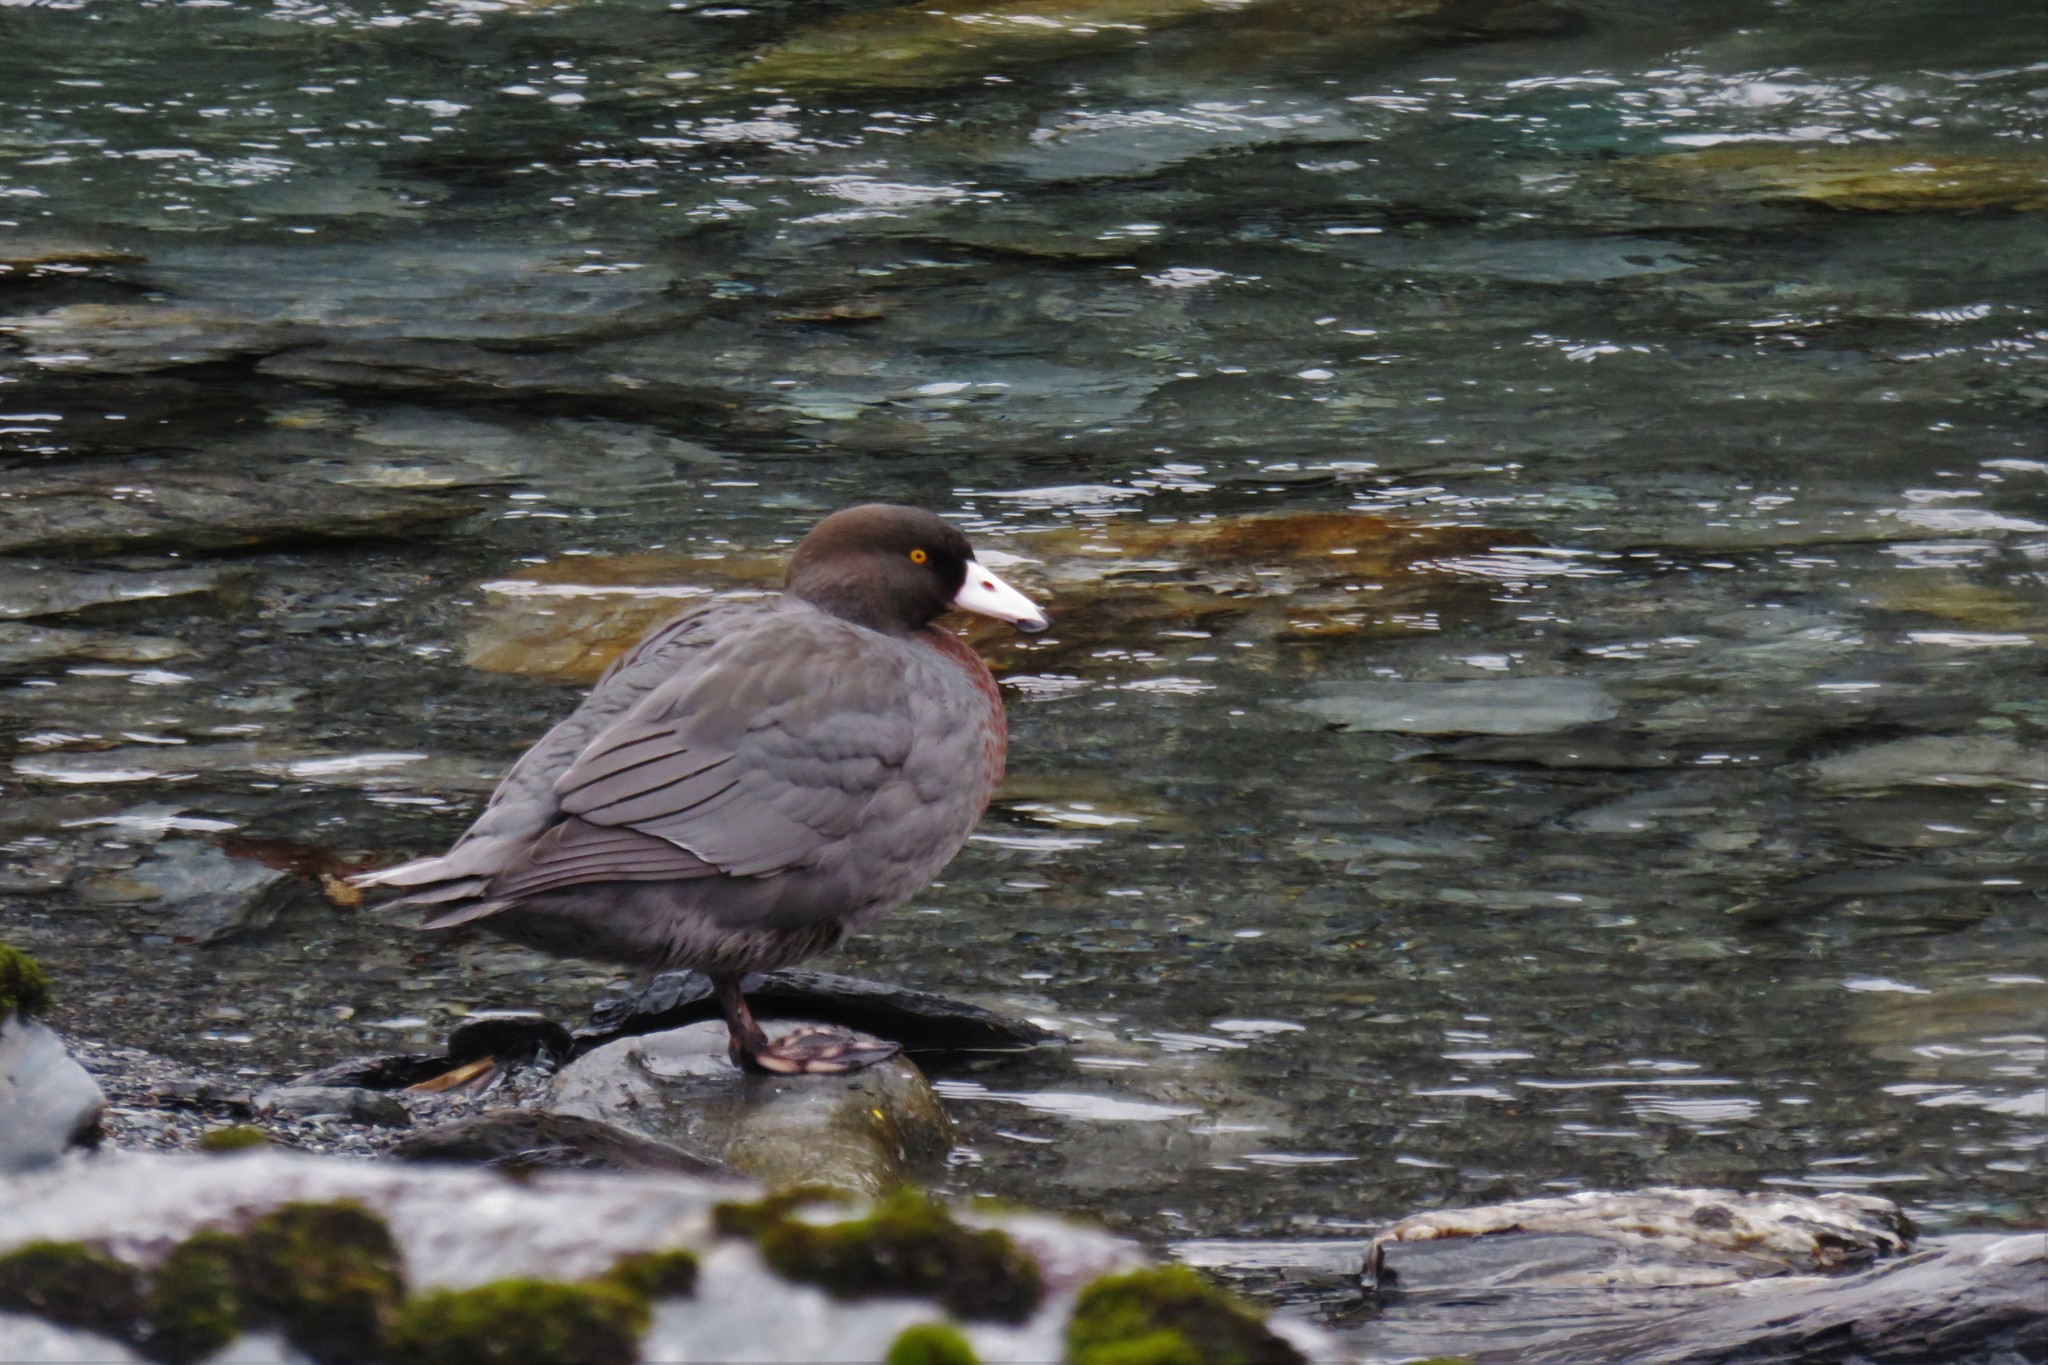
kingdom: Animalia
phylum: Chordata
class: Aves
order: Anseriformes
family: Anatidae
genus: Hymenolaimus
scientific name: Hymenolaimus malacorhynchos
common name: Blue duck
